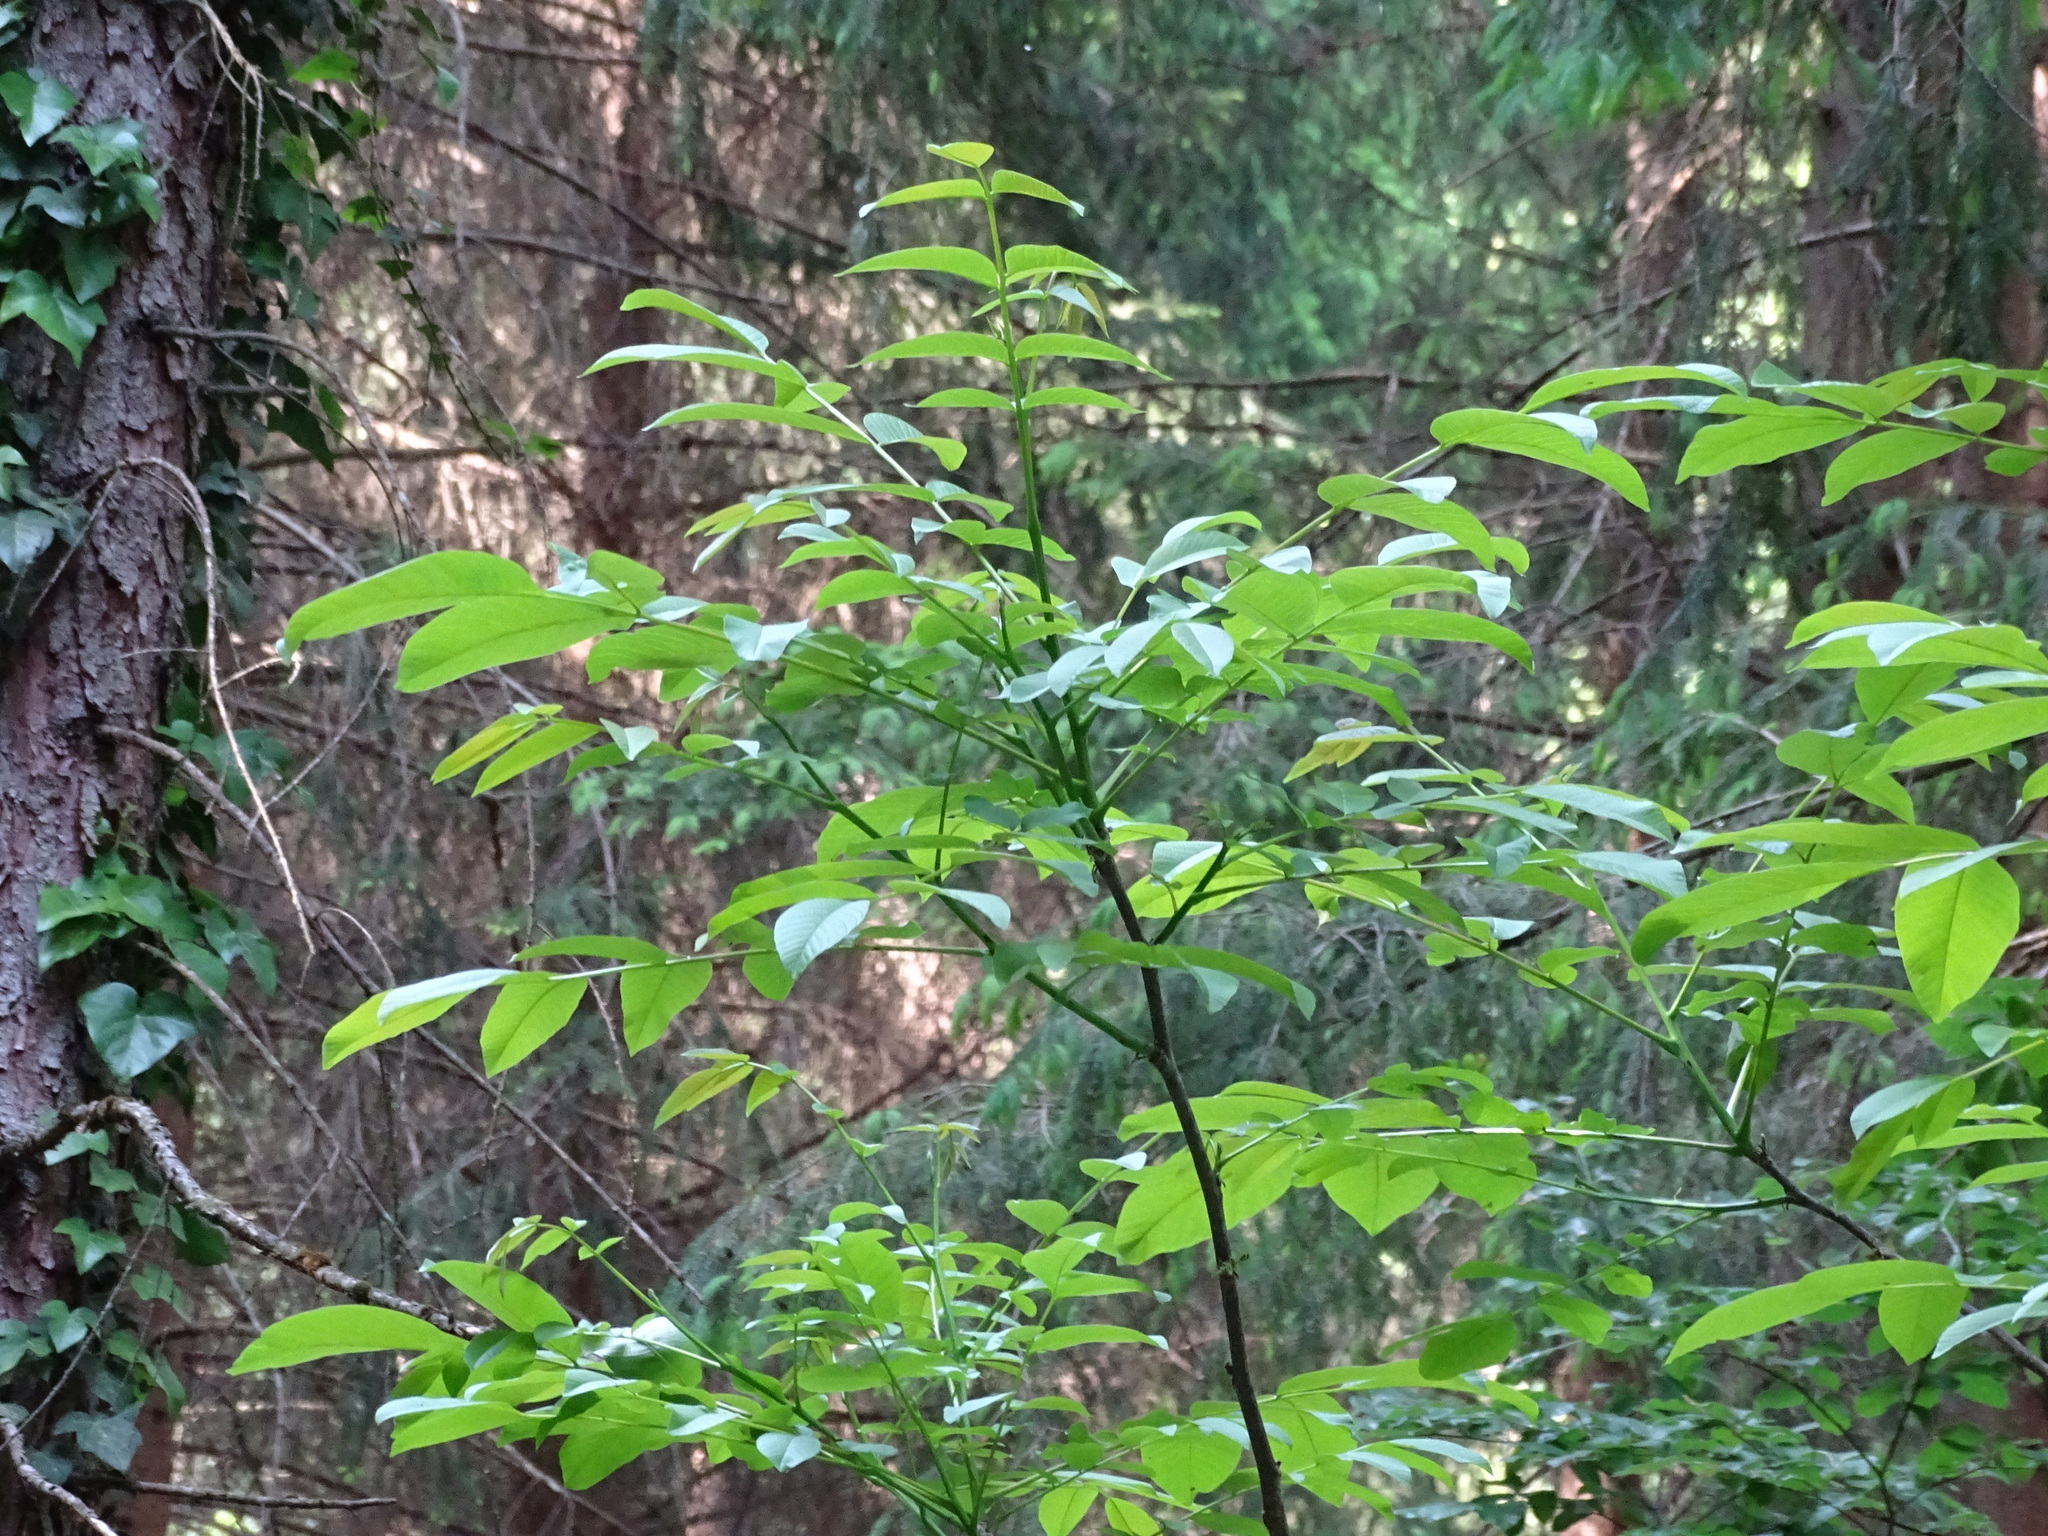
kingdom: Plantae
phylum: Tracheophyta
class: Magnoliopsida
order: Fagales
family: Juglandaceae
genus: Juglans
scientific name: Juglans regia
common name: Walnut
